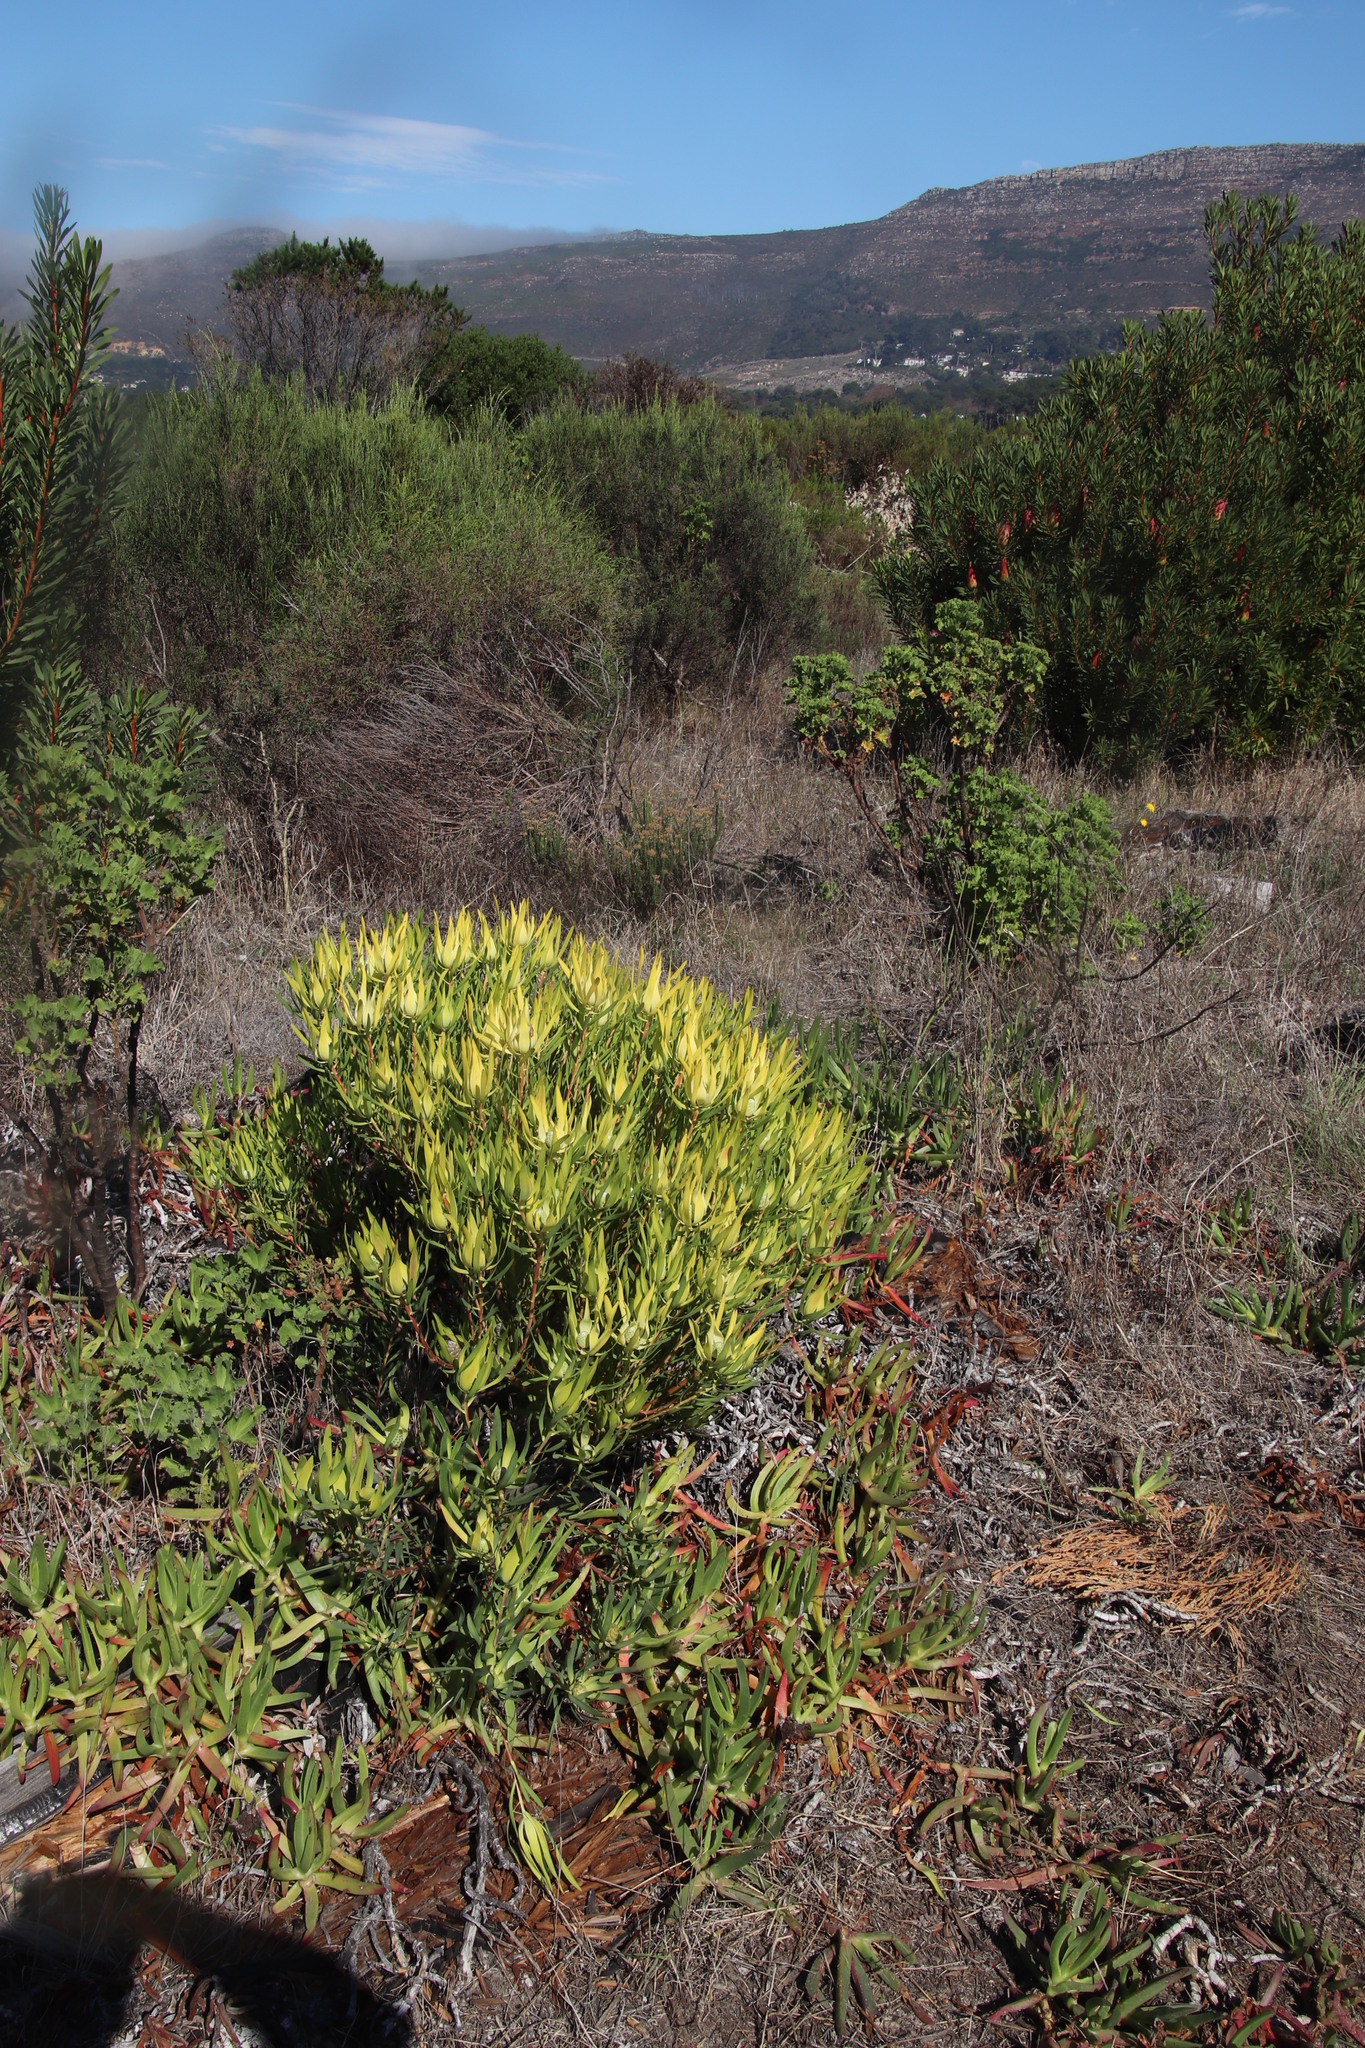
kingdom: Plantae
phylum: Tracheophyta
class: Magnoliopsida
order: Proteales
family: Proteaceae
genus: Leucadendron
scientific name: Leucadendron salignum
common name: Common sunshine conebush
